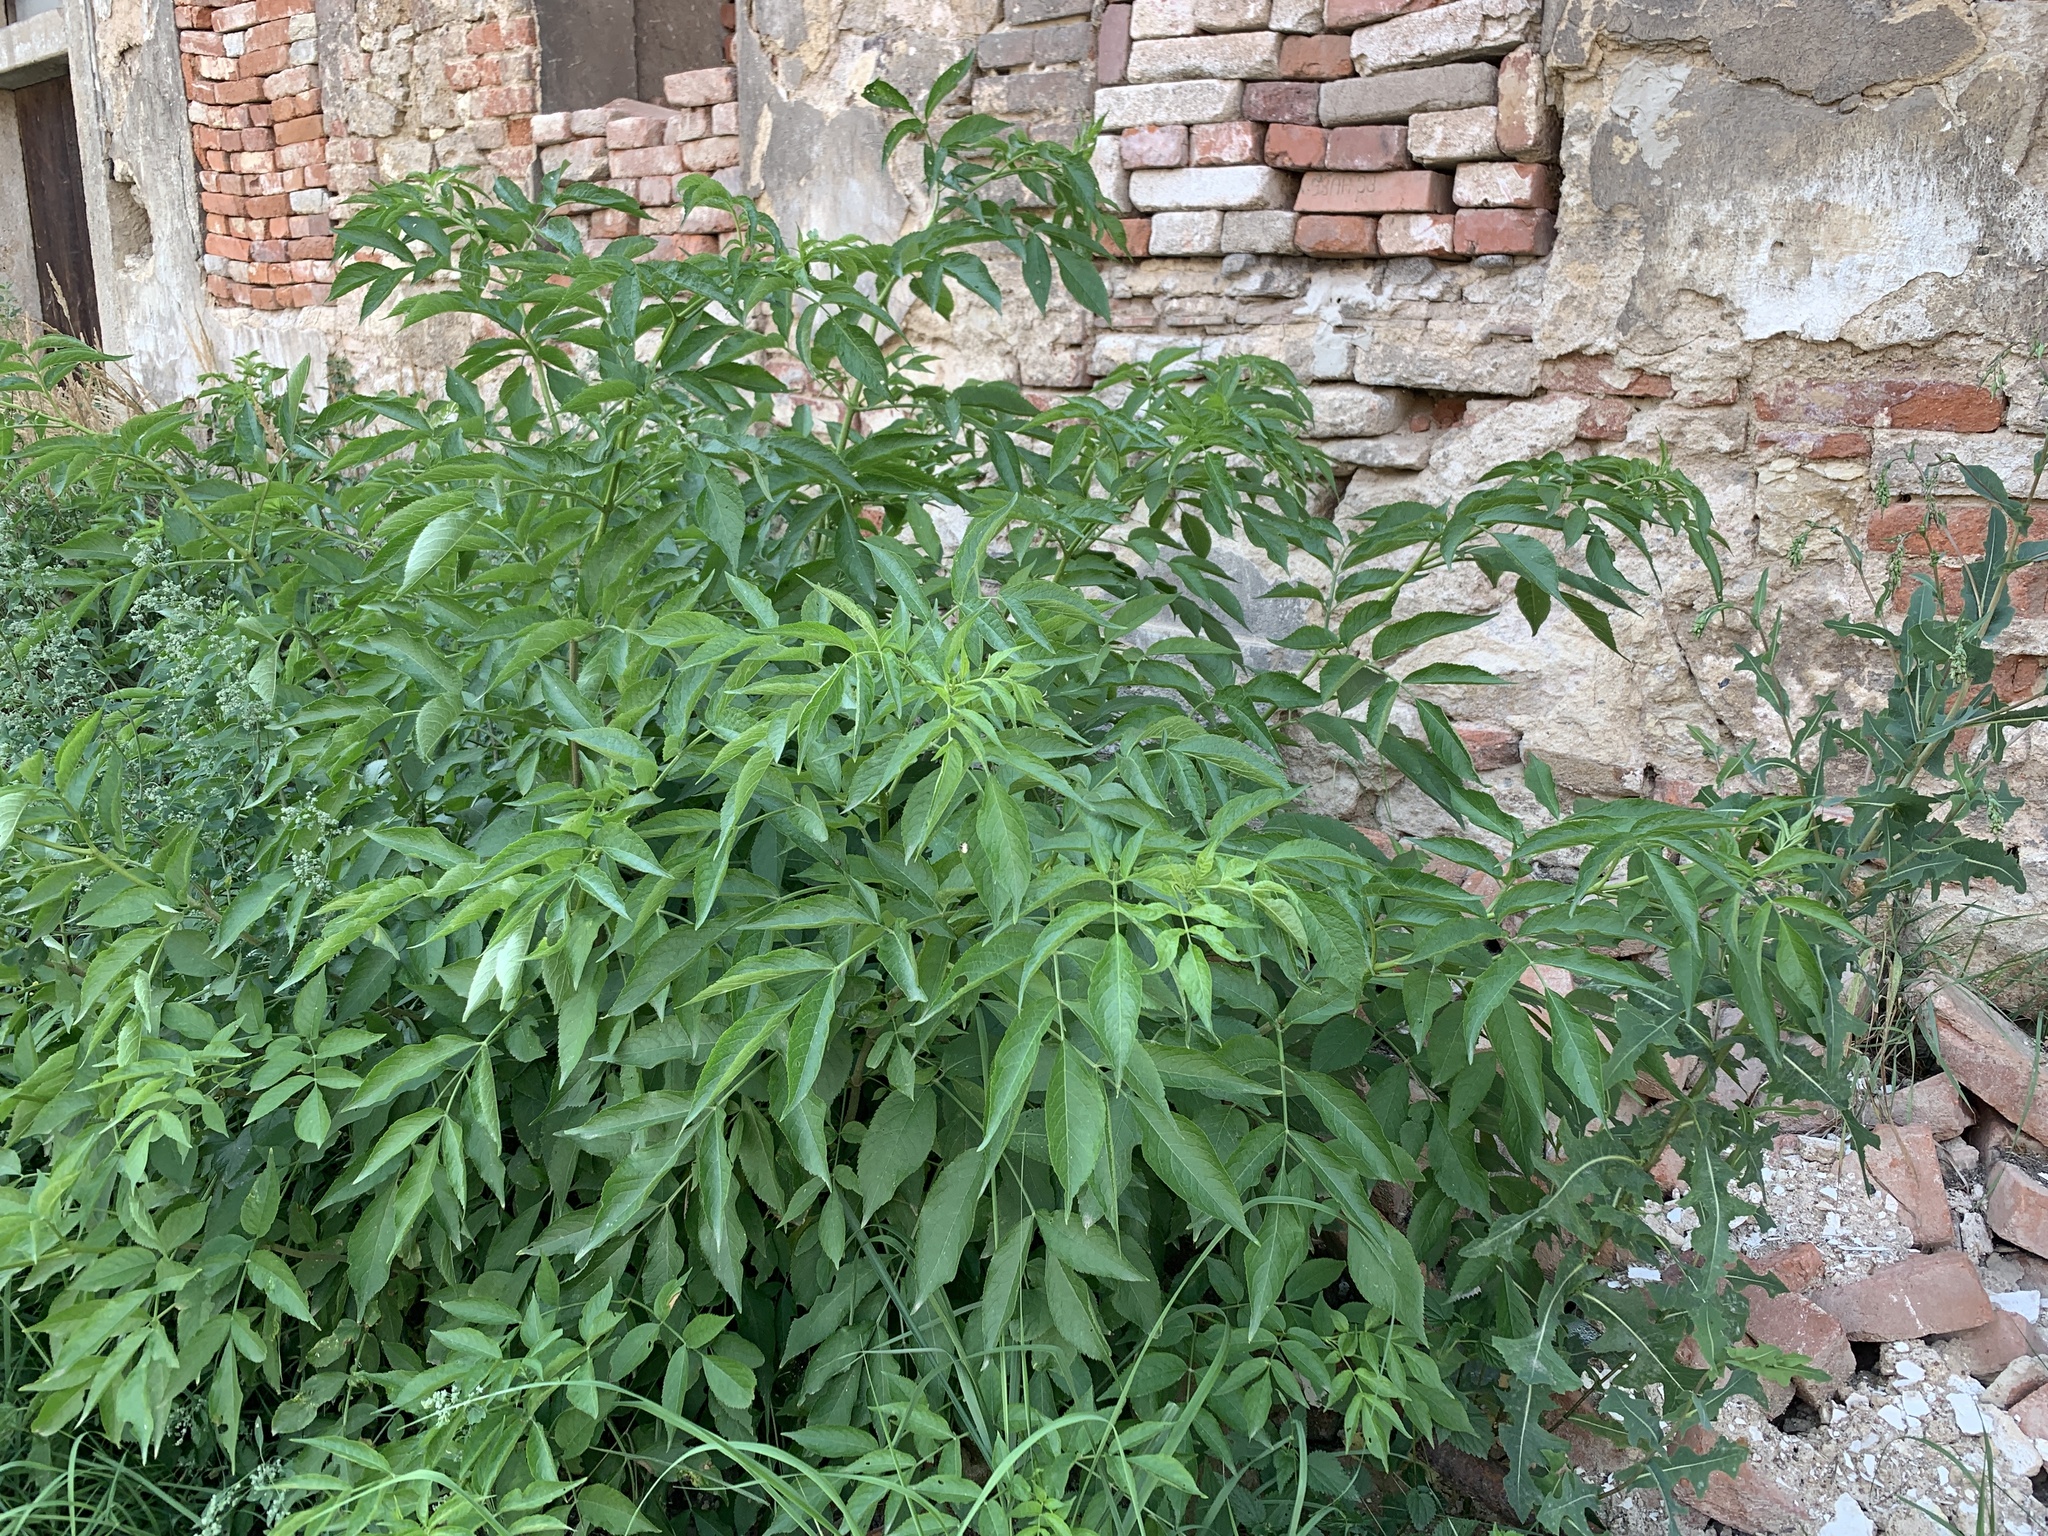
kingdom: Plantae
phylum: Tracheophyta
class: Magnoliopsida
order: Dipsacales
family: Viburnaceae
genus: Sambucus
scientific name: Sambucus nigra
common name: Elder
